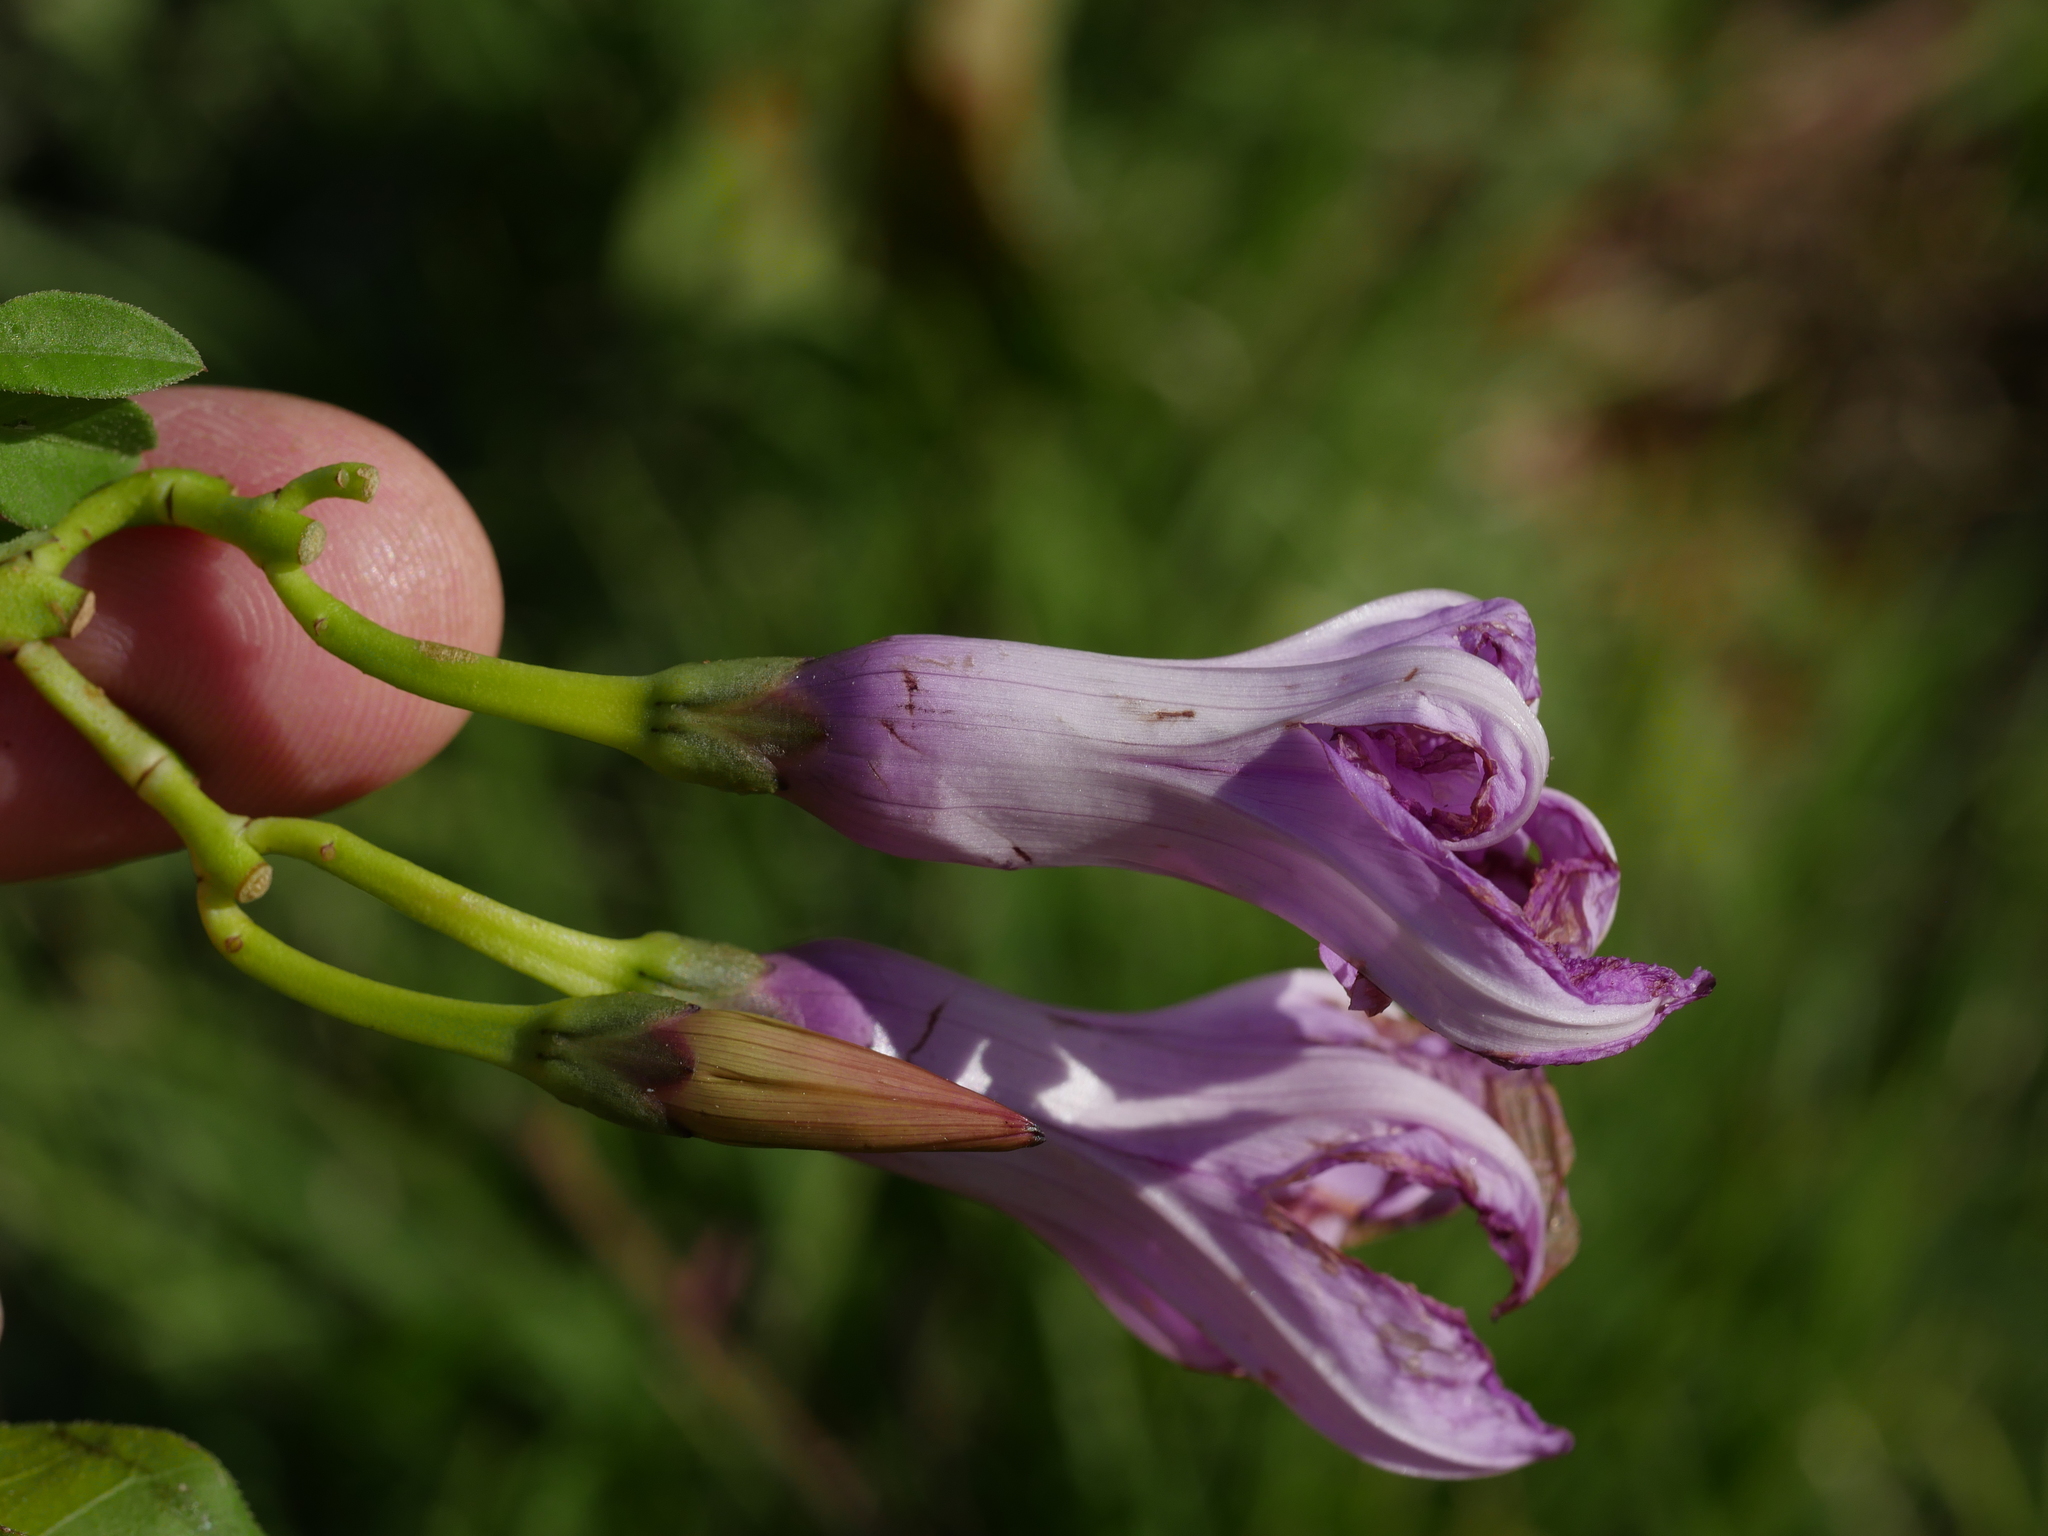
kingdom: Plantae
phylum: Tracheophyta
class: Magnoliopsida
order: Solanales
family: Convolvulaceae
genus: Ipomoea
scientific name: Ipomoea cairica
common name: Mile a minute vine
